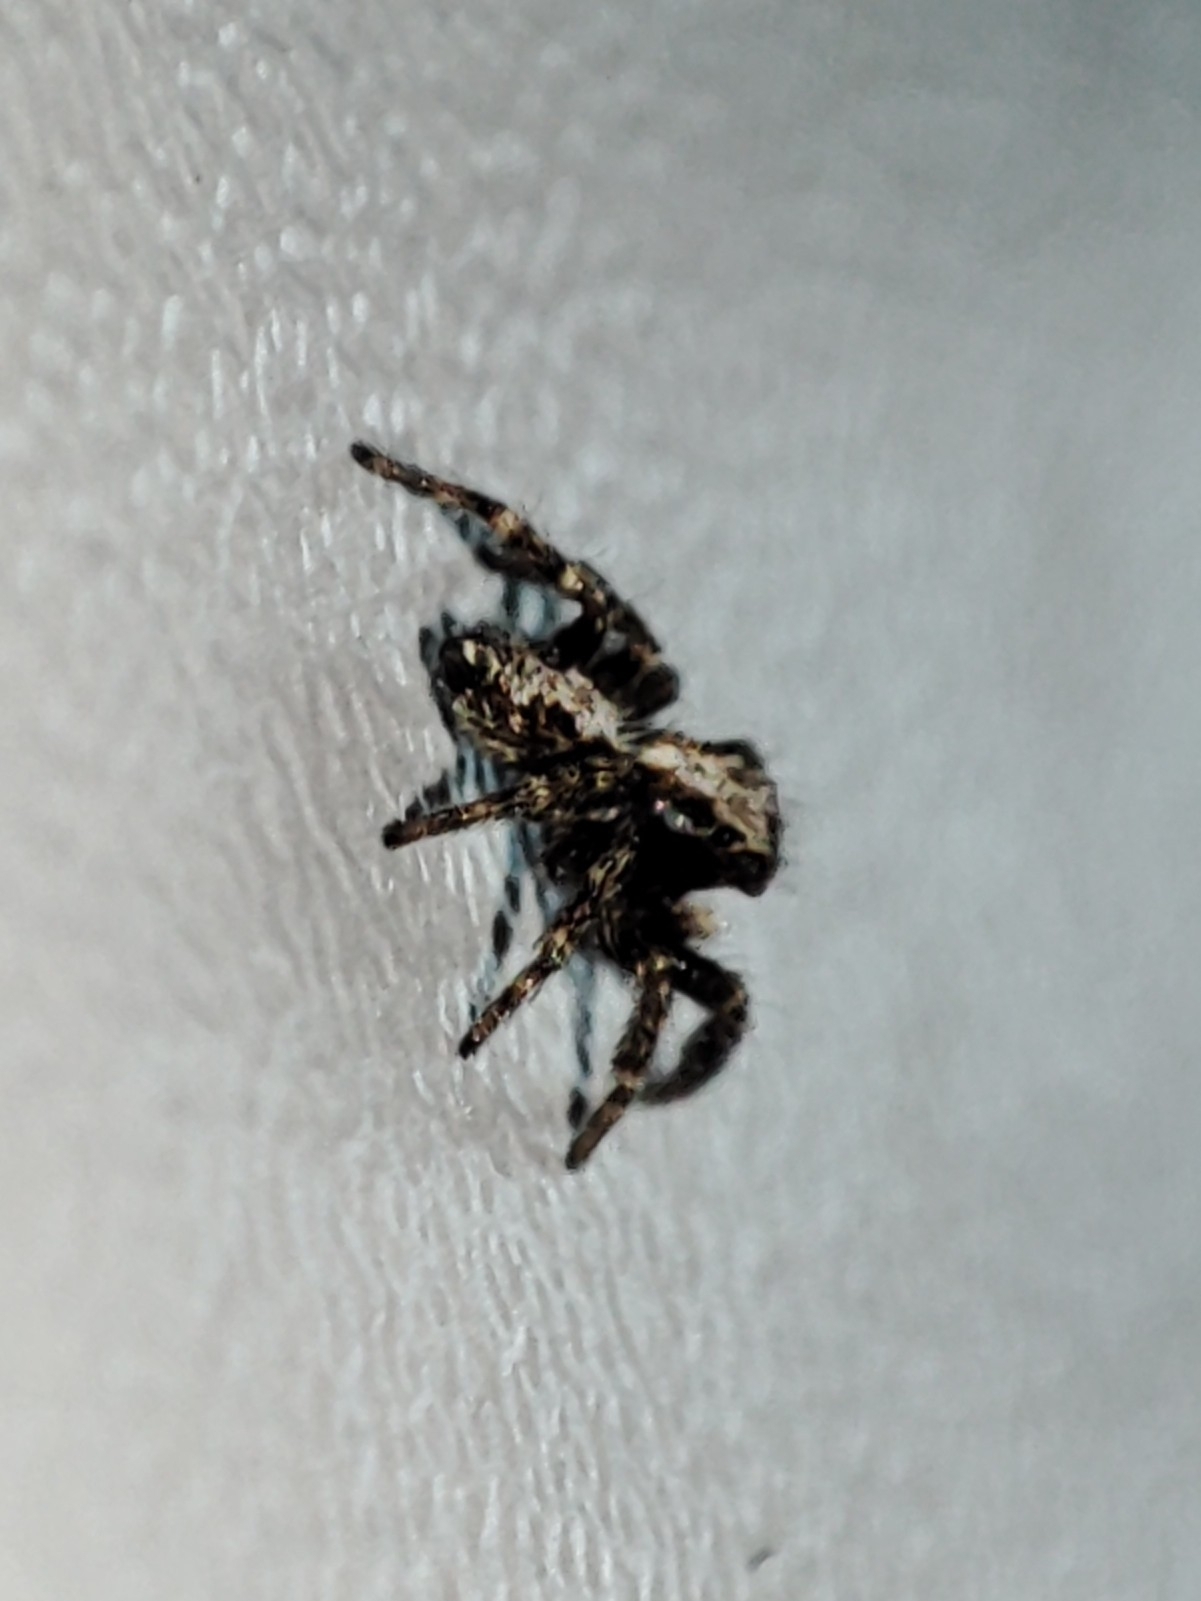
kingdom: Animalia
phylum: Arthropoda
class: Arachnida
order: Araneae
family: Salticidae
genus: Pseudeuophrys
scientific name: Pseudeuophrys lanigera
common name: Jumping spider
